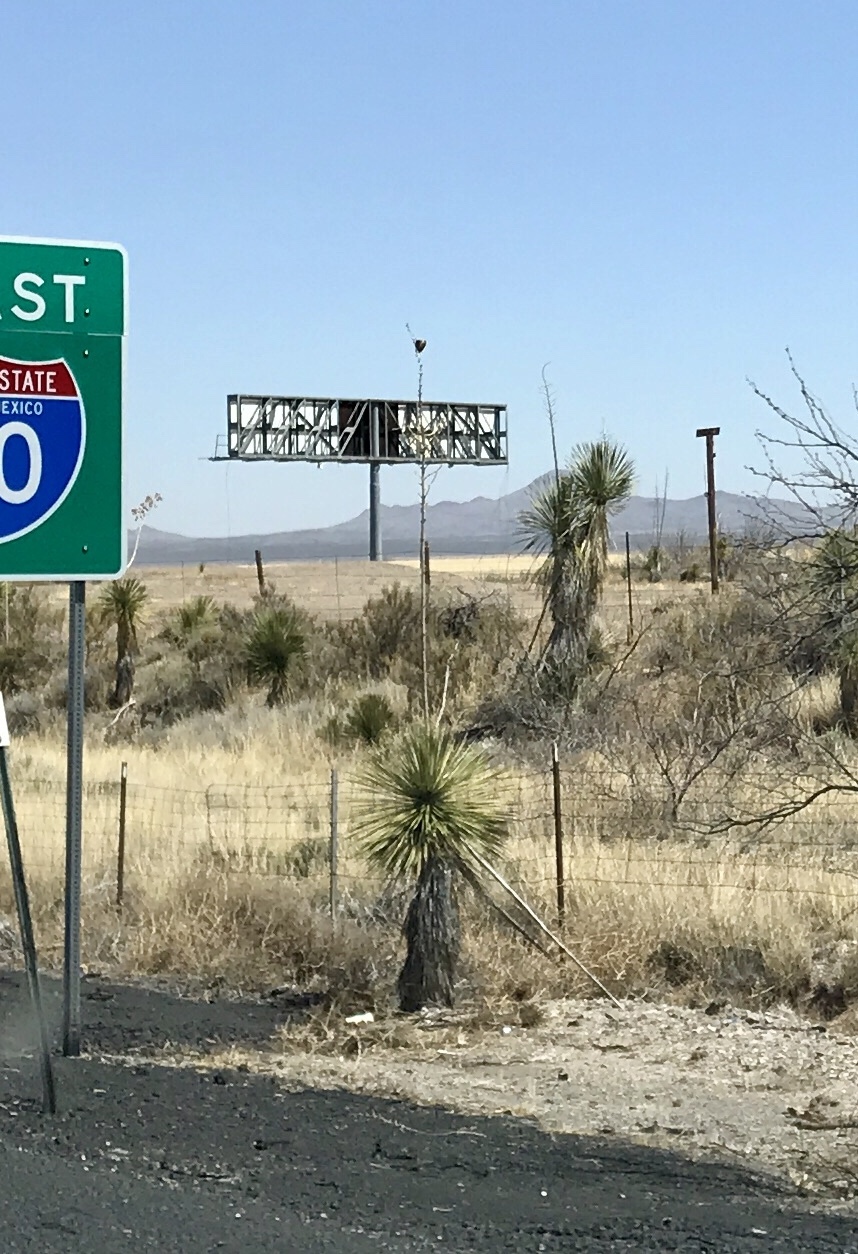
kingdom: Plantae
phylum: Tracheophyta
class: Liliopsida
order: Asparagales
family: Asparagaceae
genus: Yucca
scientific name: Yucca elata
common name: Palmella
